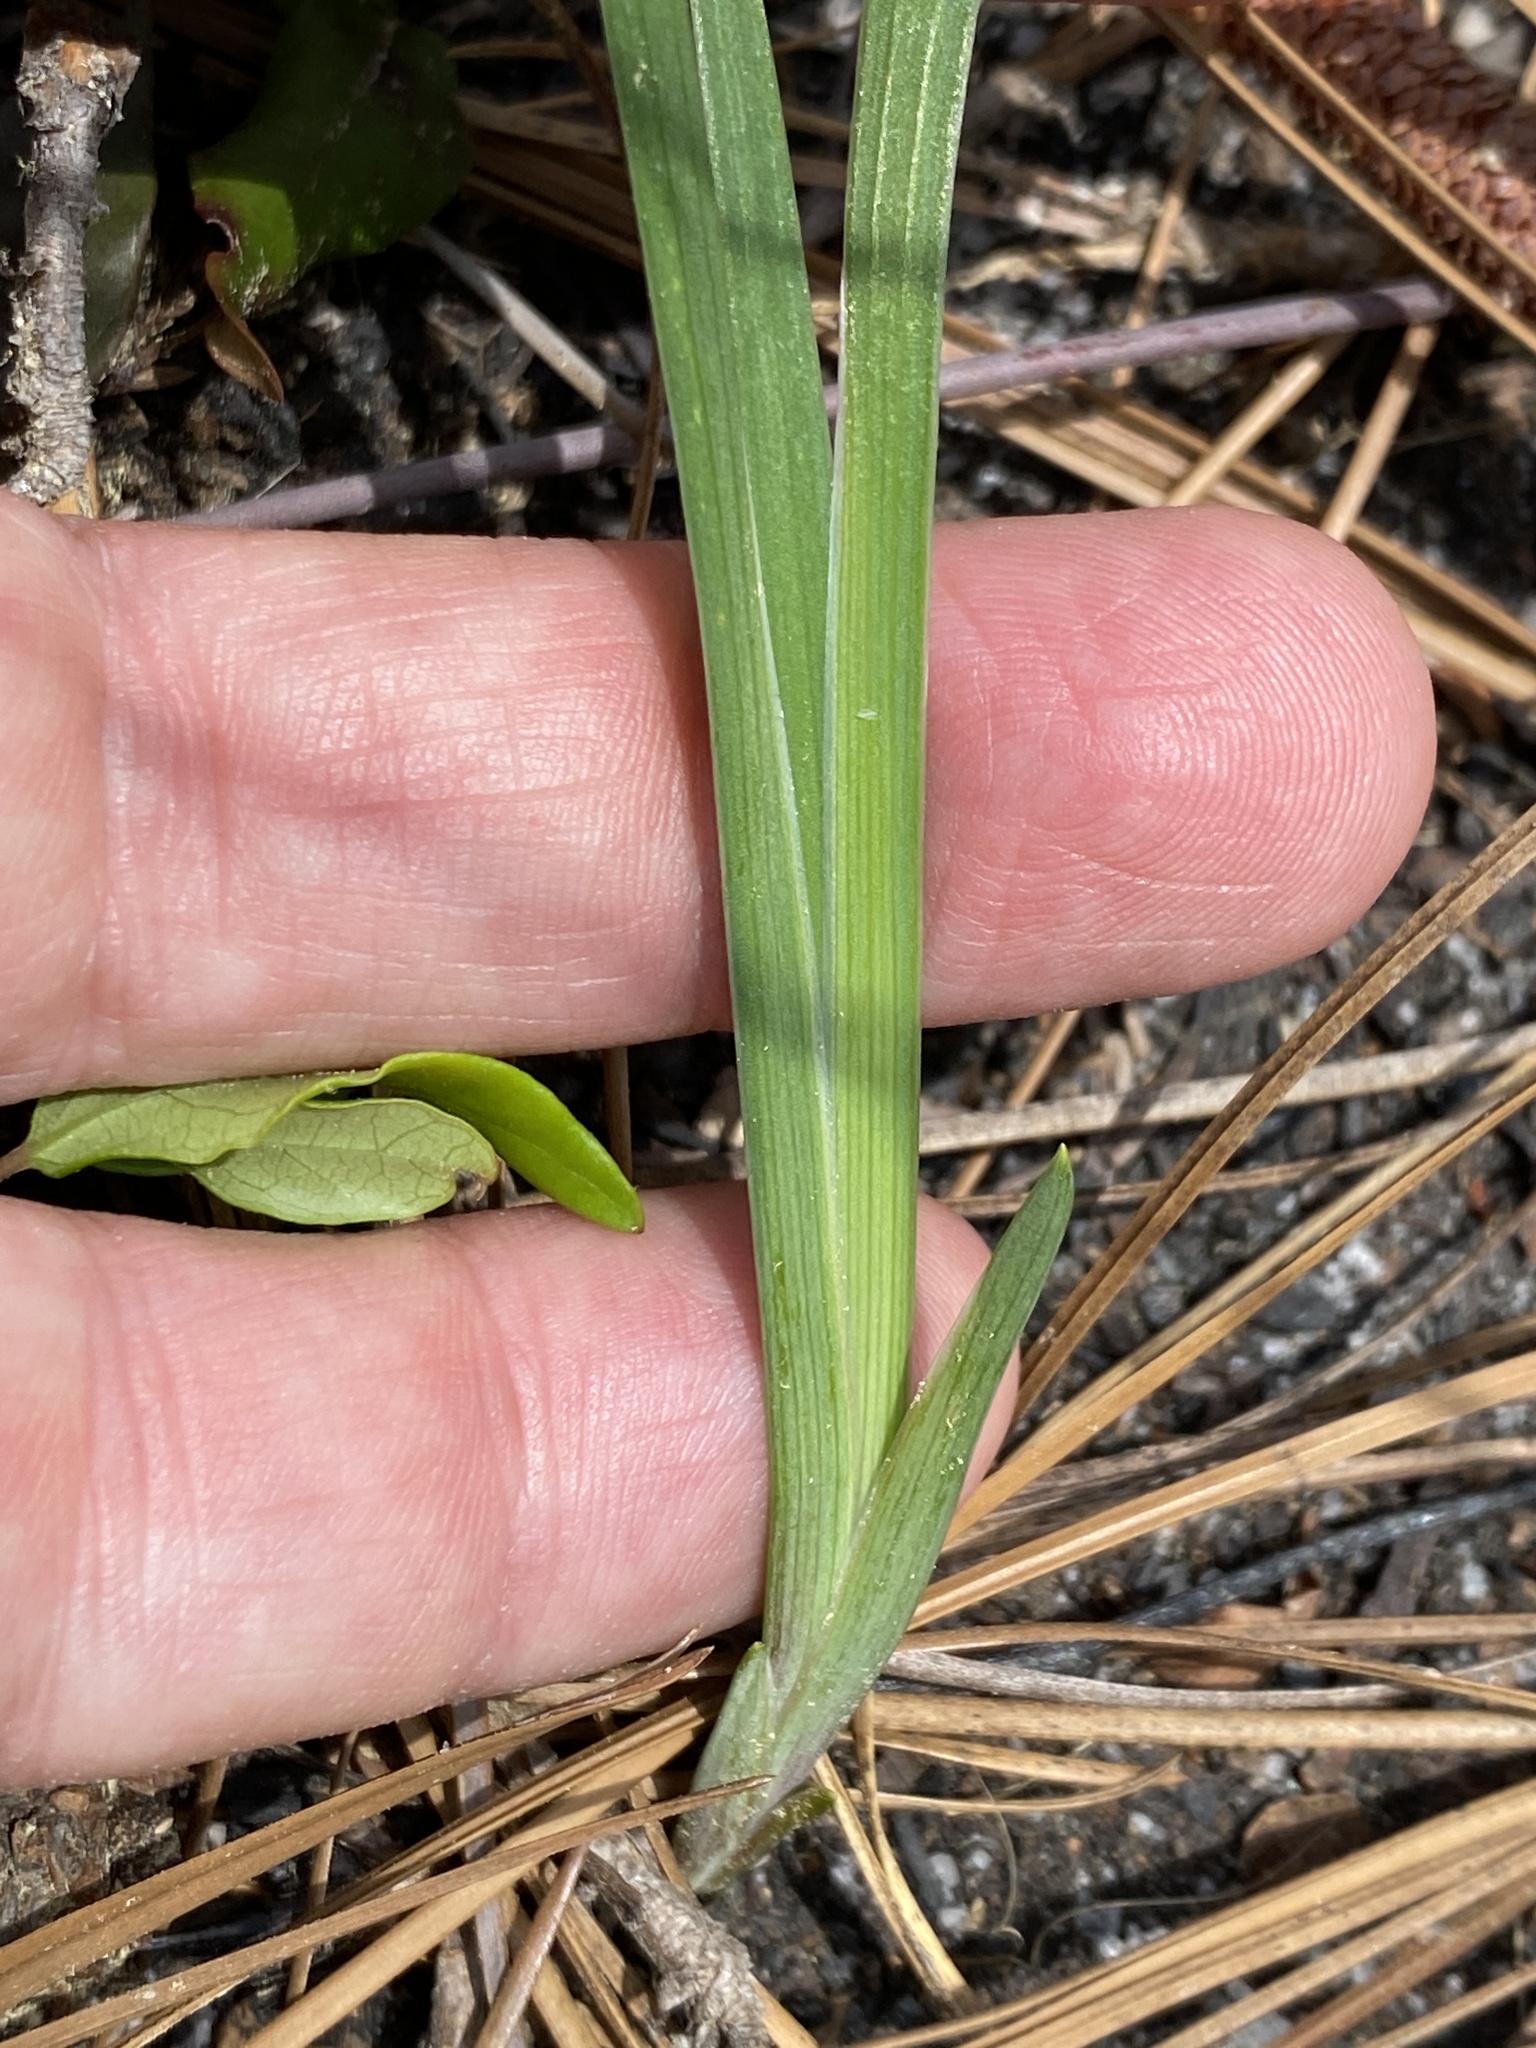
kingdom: Plantae
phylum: Tracheophyta
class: Liliopsida
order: Asparagales
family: Iridaceae
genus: Iris
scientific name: Iris verna
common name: Dwarf iris
